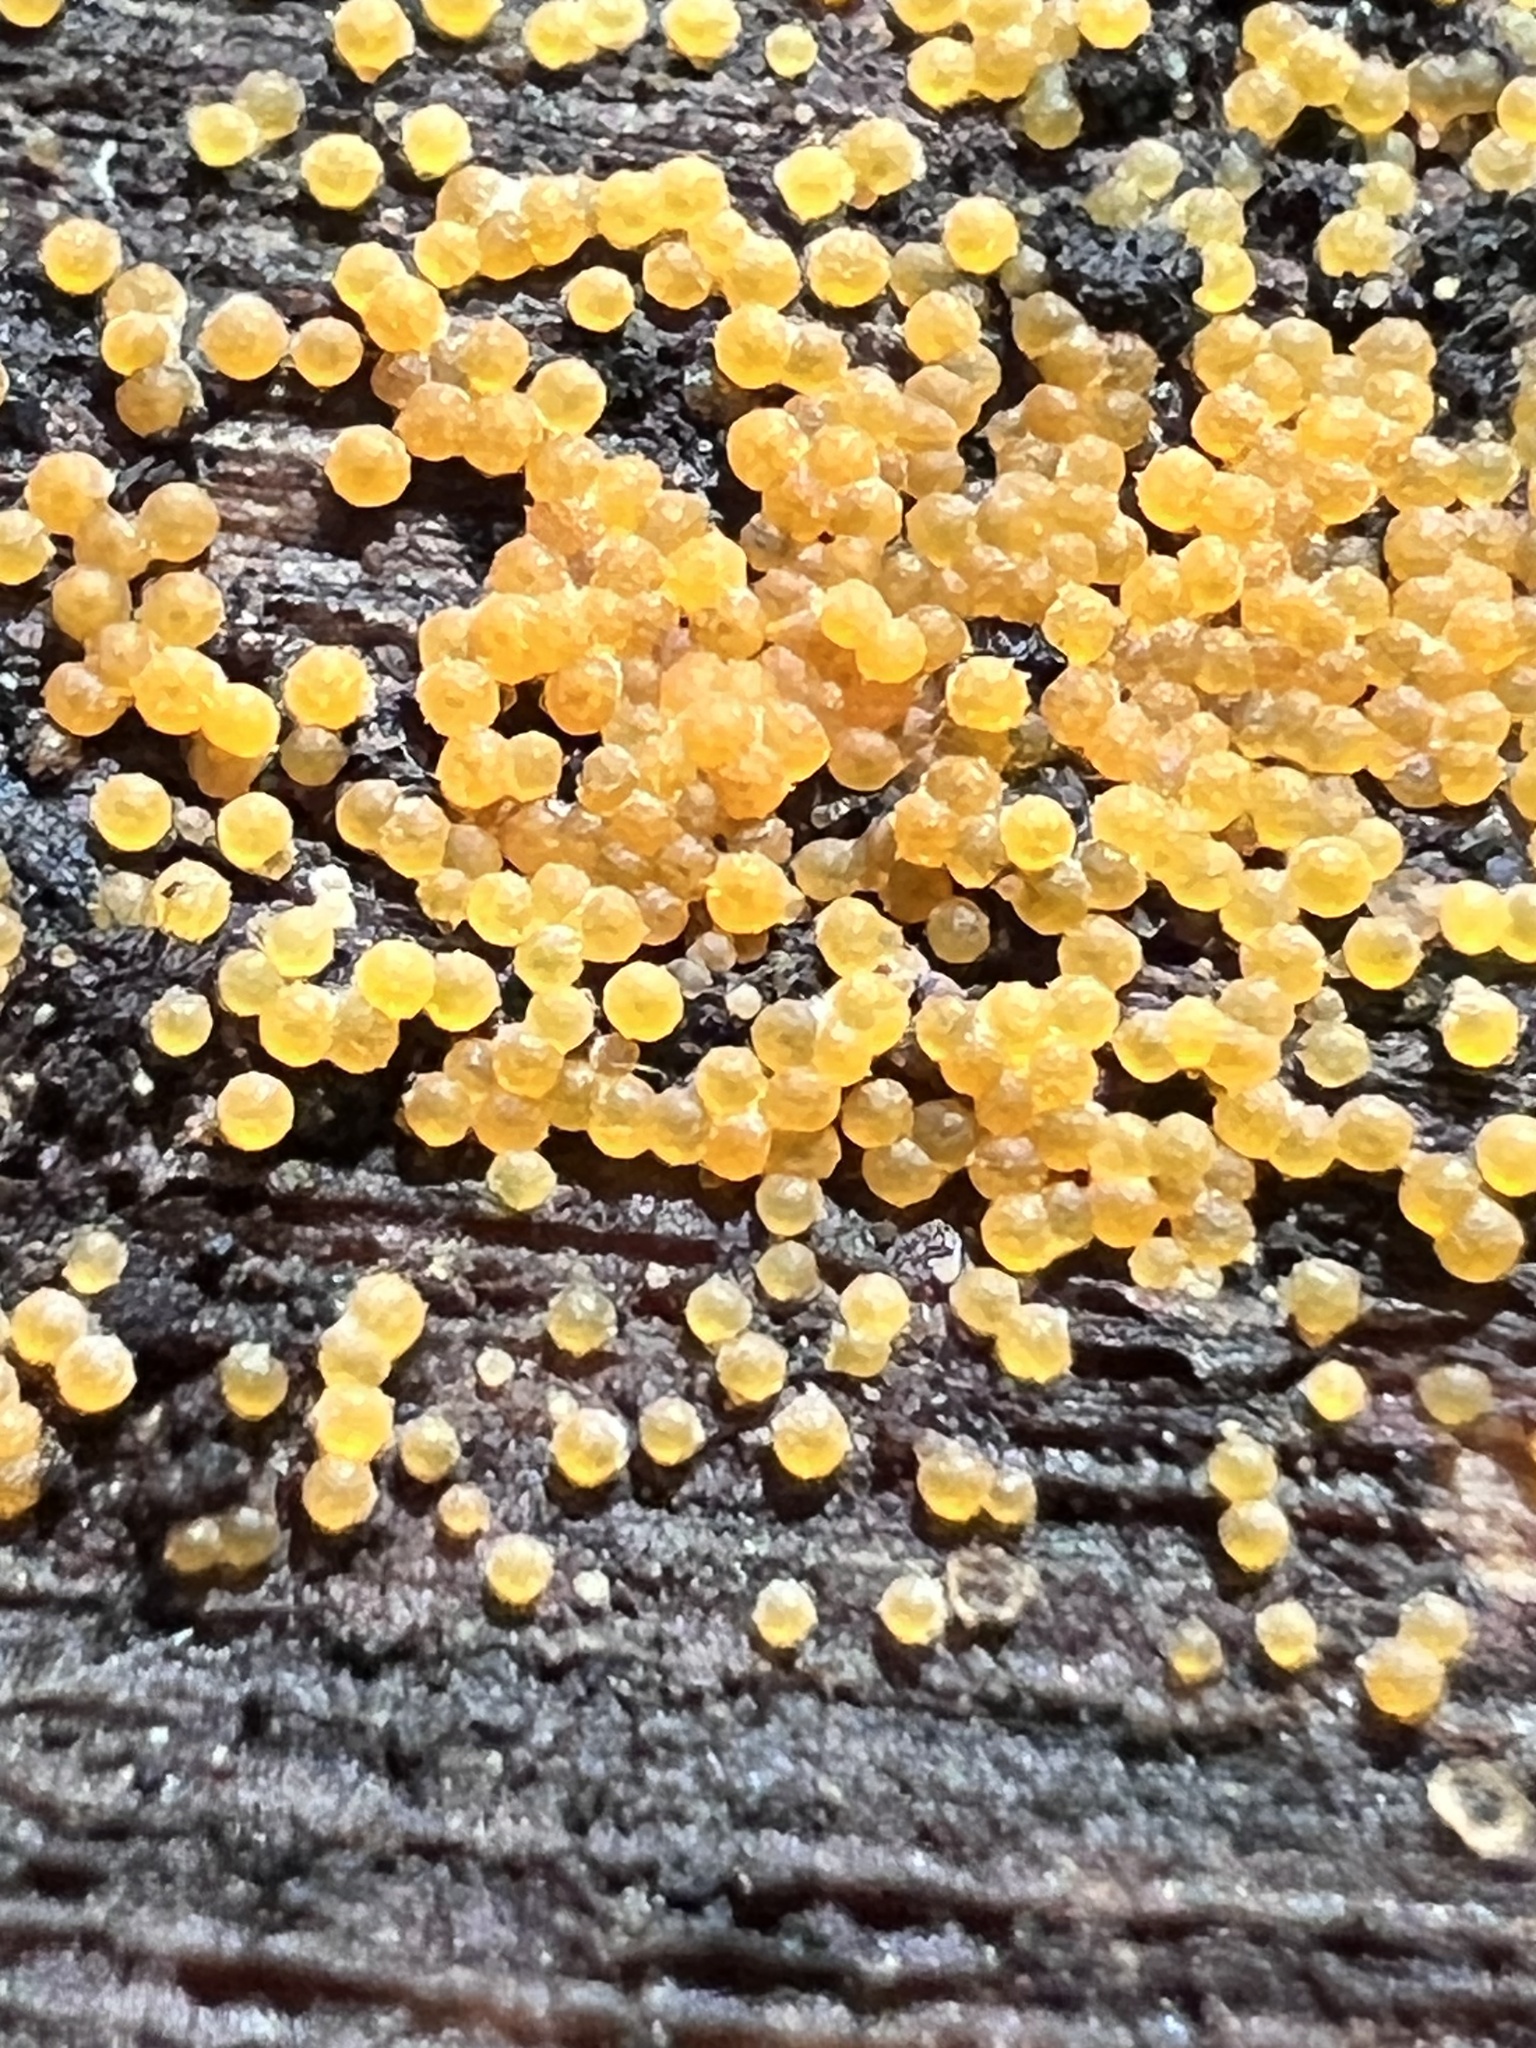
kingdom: Fungi
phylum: Ascomycota
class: Sordariomycetes
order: Hypocreales
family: Nectriaceae
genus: Hydropisphaera
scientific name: Hydropisphaera peziza
